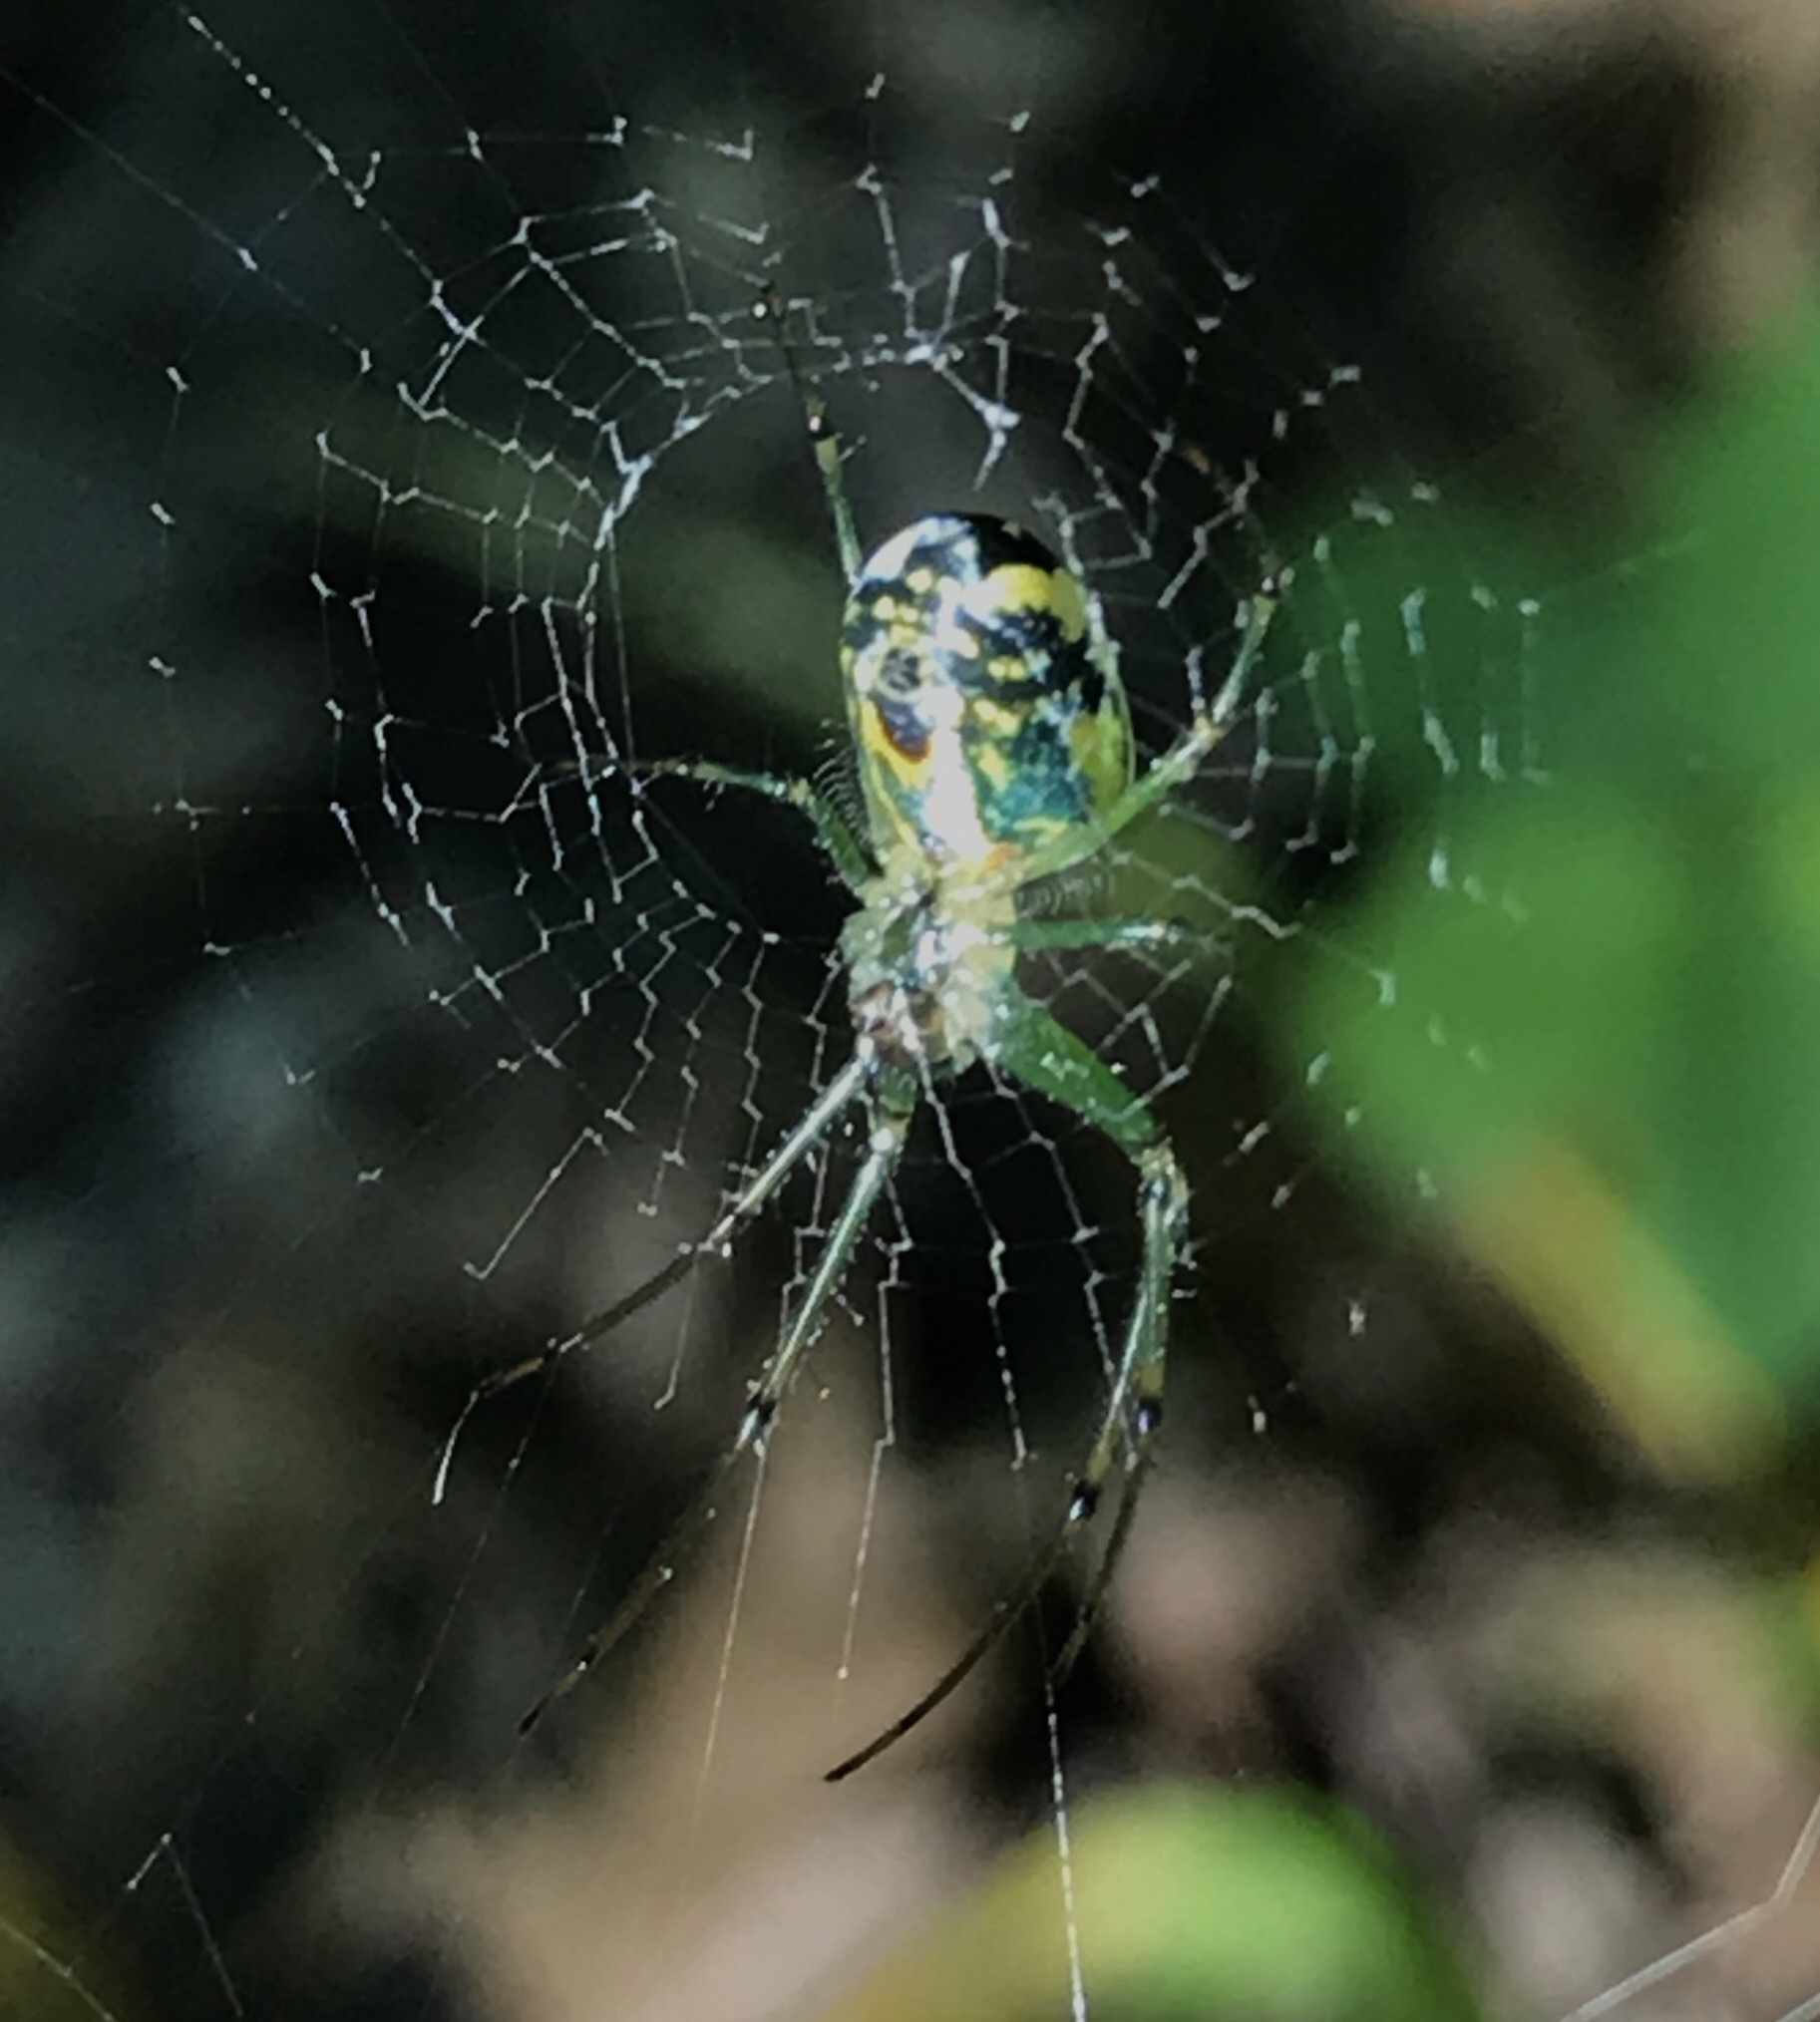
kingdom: Animalia
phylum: Arthropoda
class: Arachnida
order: Araneae
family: Tetragnathidae
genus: Leucauge
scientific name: Leucauge venusta
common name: Longjawed orb weavers
